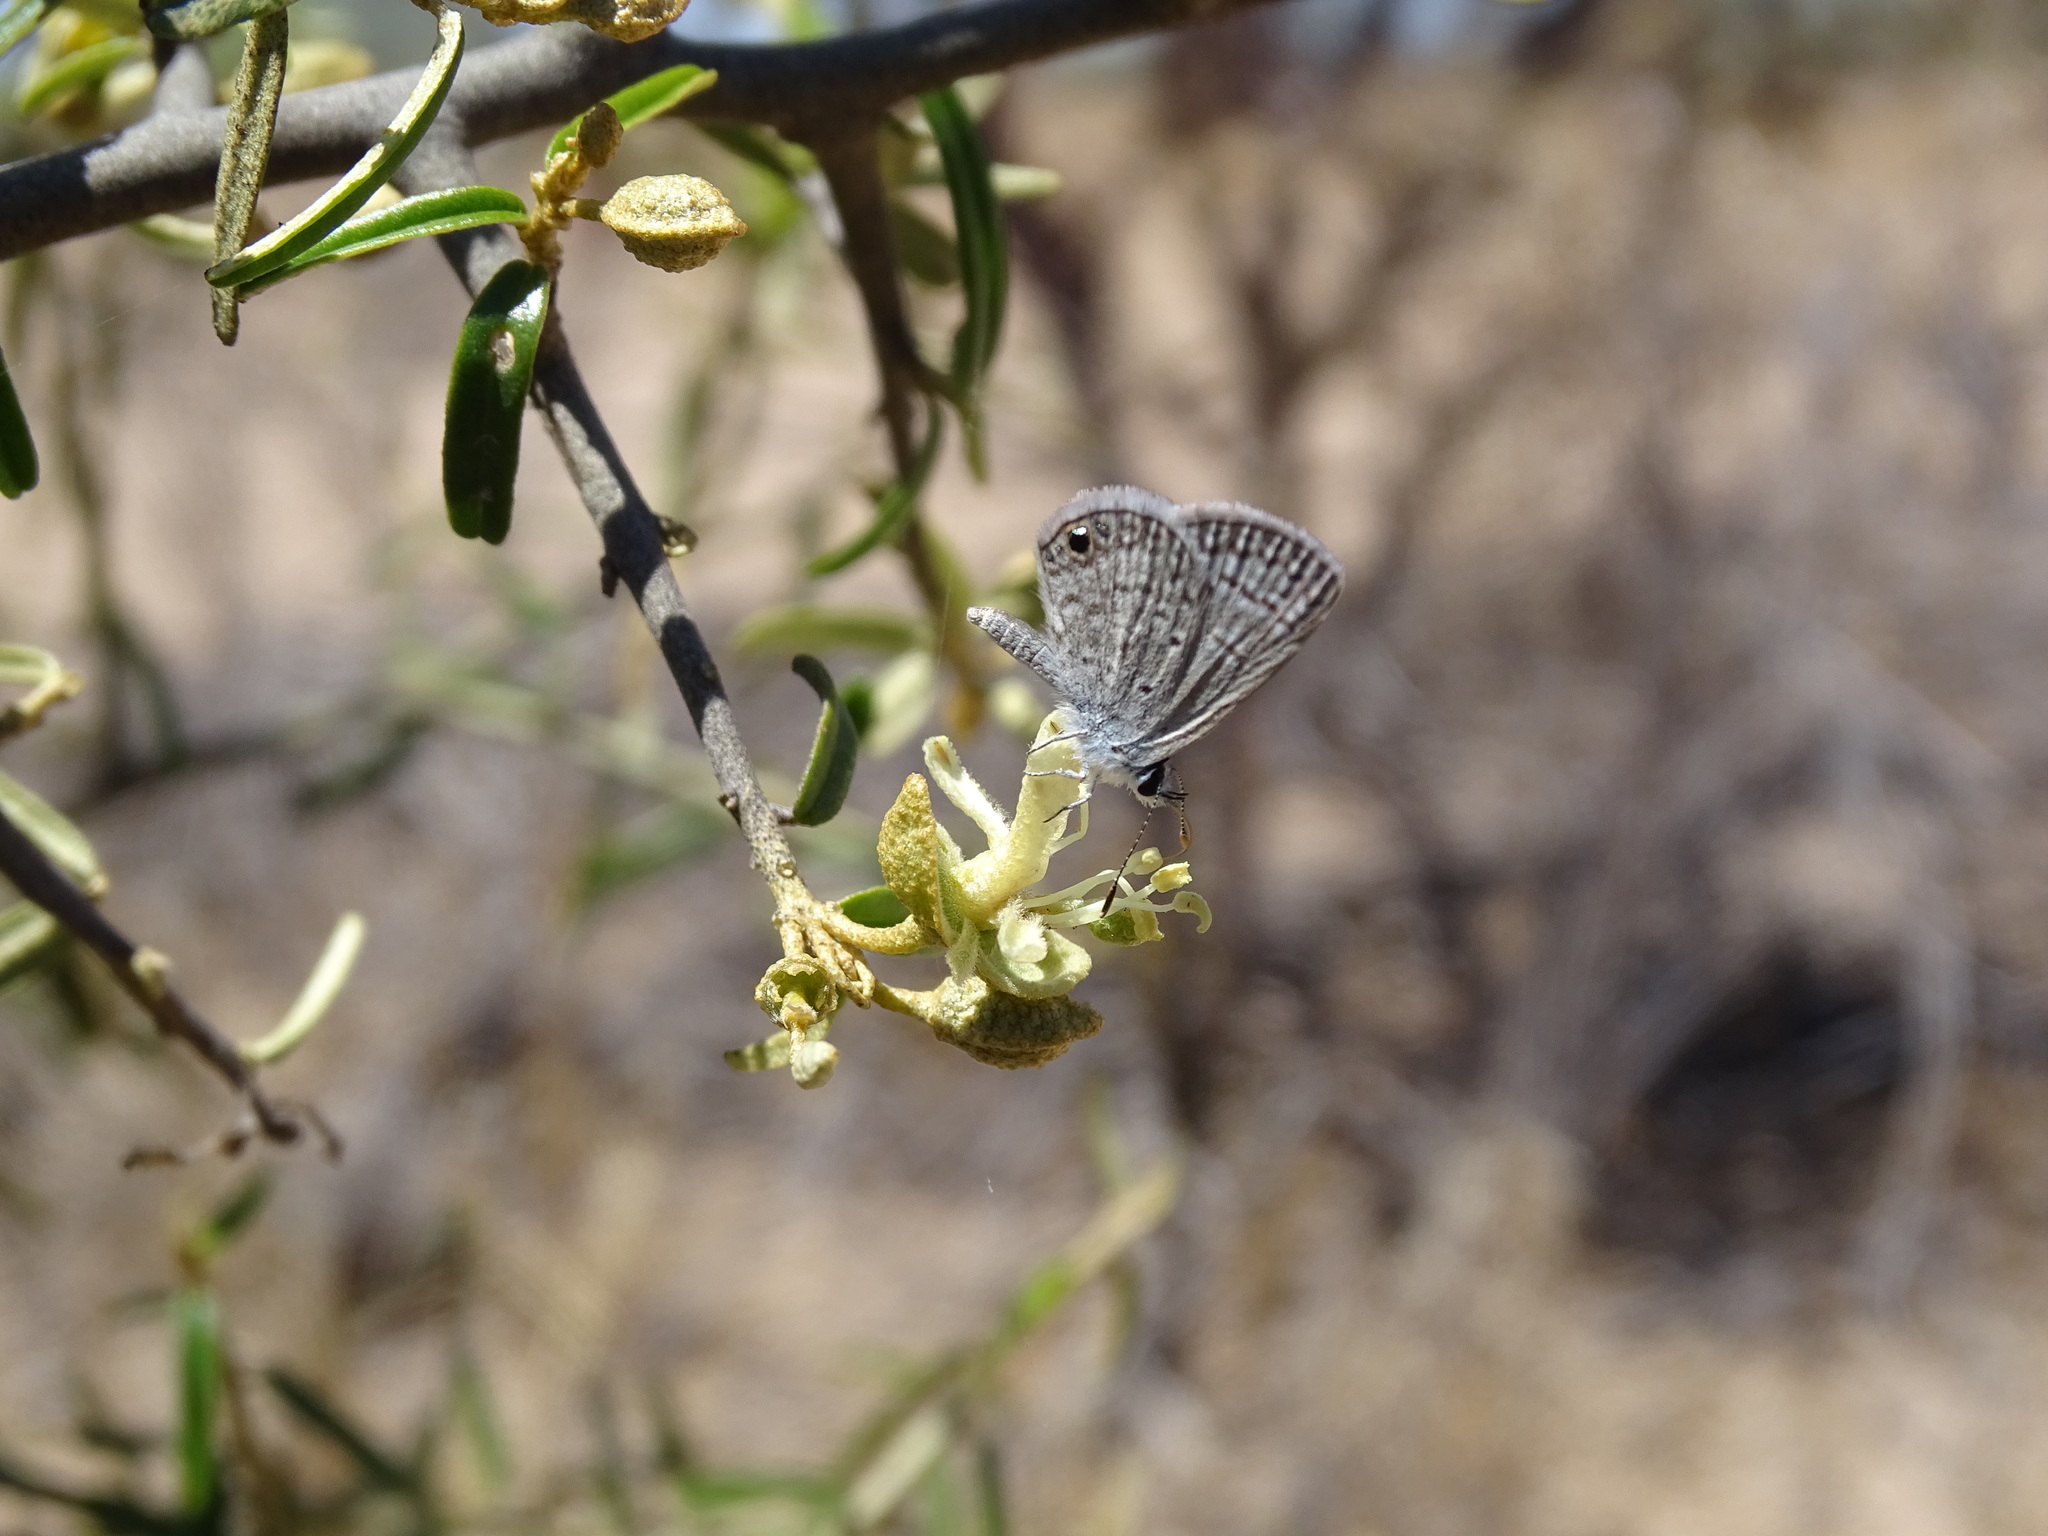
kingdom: Animalia
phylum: Arthropoda
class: Insecta
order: Lepidoptera
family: Lycaenidae
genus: Echinargus
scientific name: Echinargus isola
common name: Reakirt's blue
